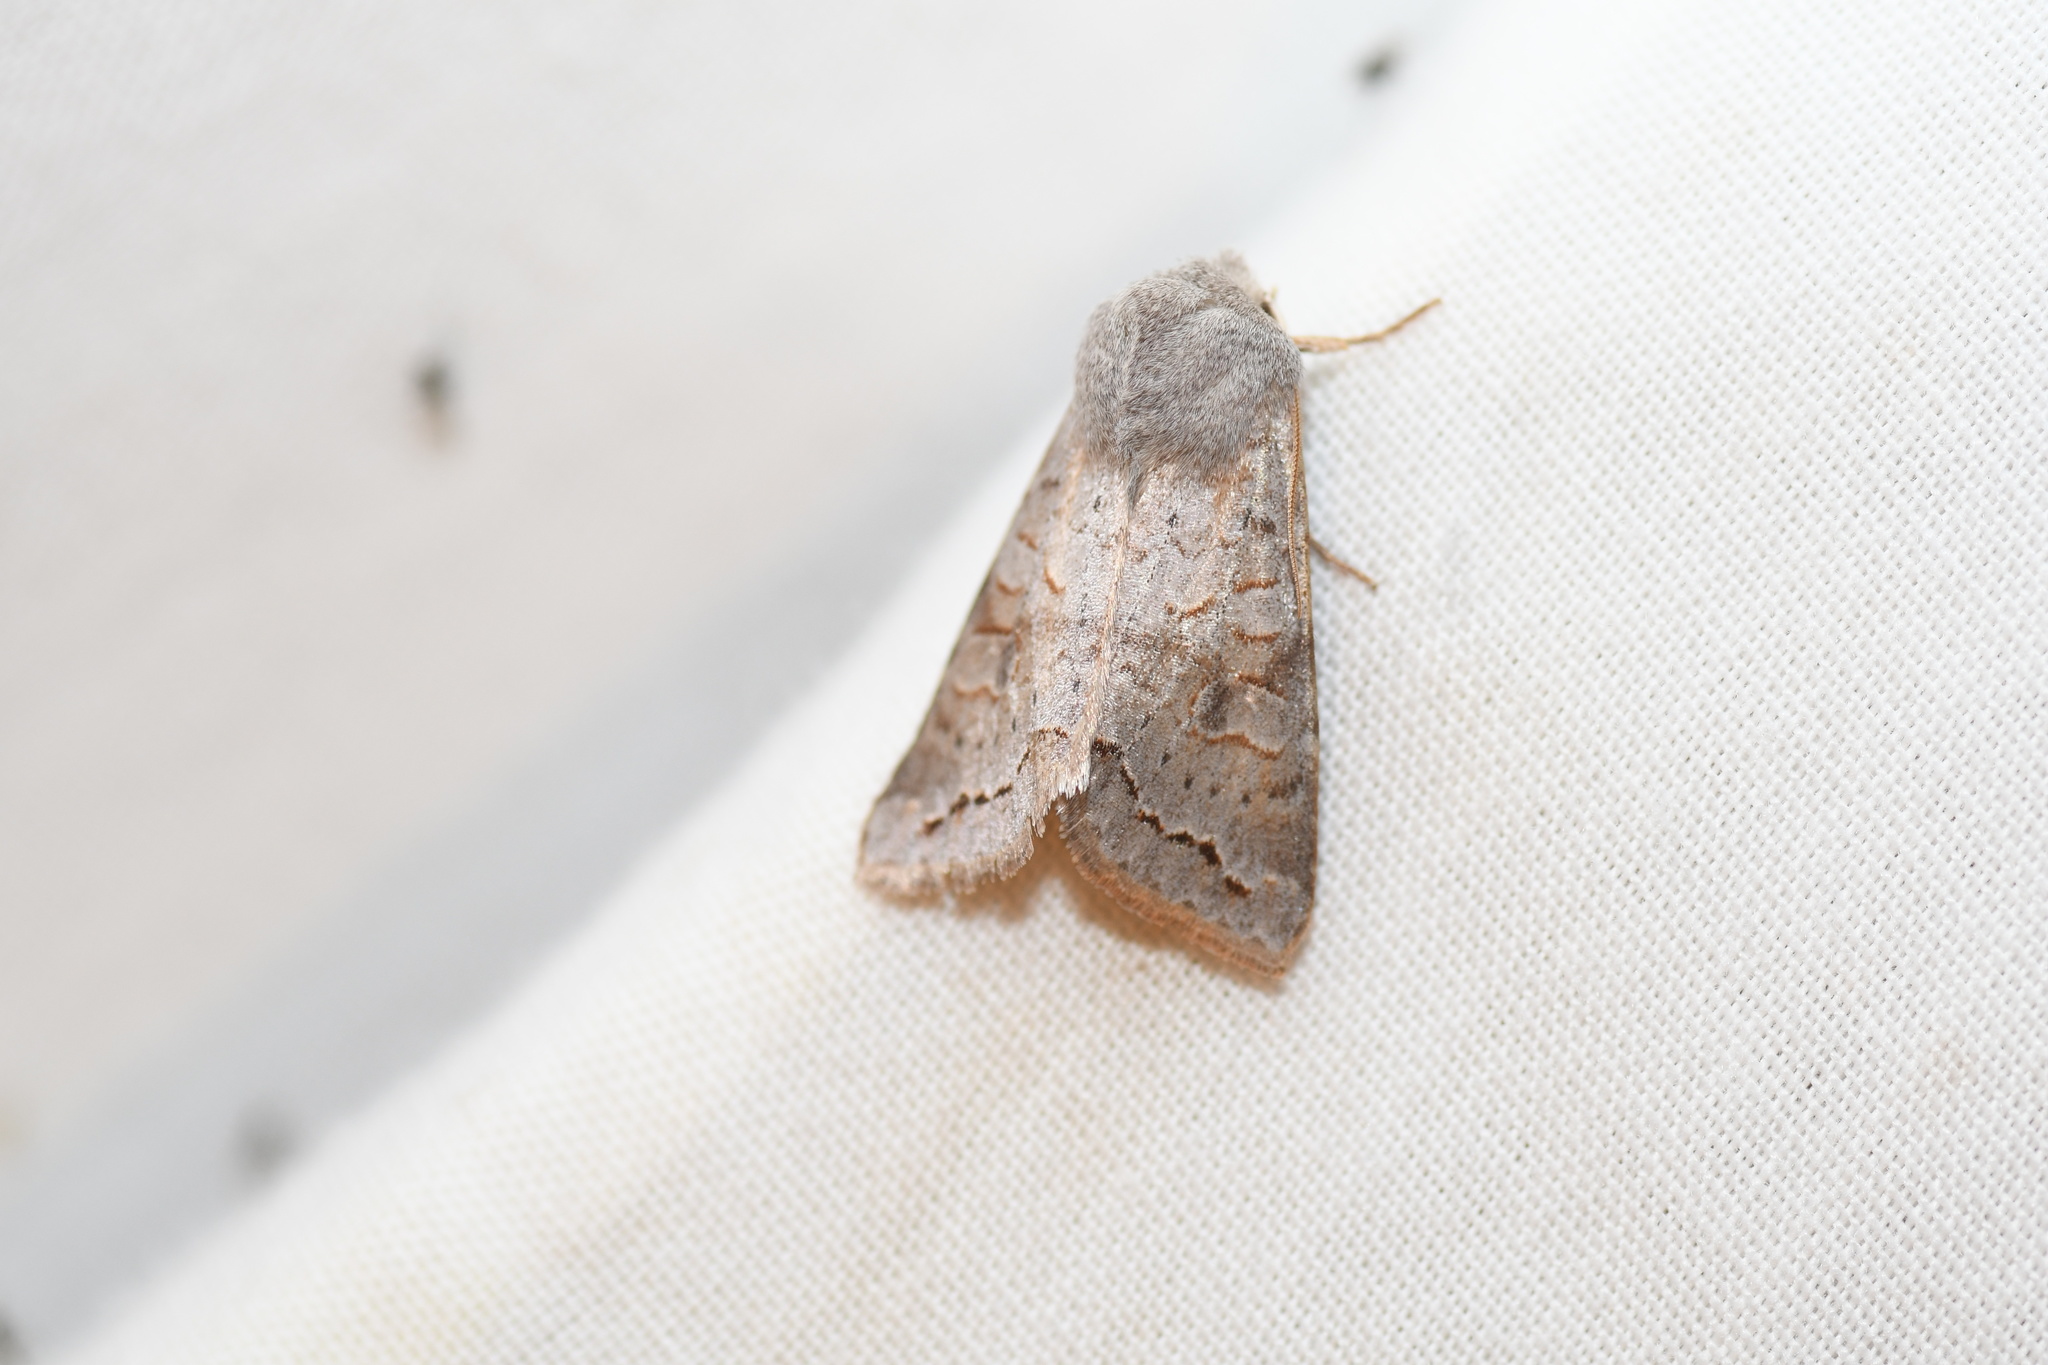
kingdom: Animalia
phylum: Arthropoda
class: Insecta
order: Lepidoptera
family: Noctuidae
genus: Orthosia
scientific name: Orthosia revicta
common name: Rusty whitesided caterpillar
